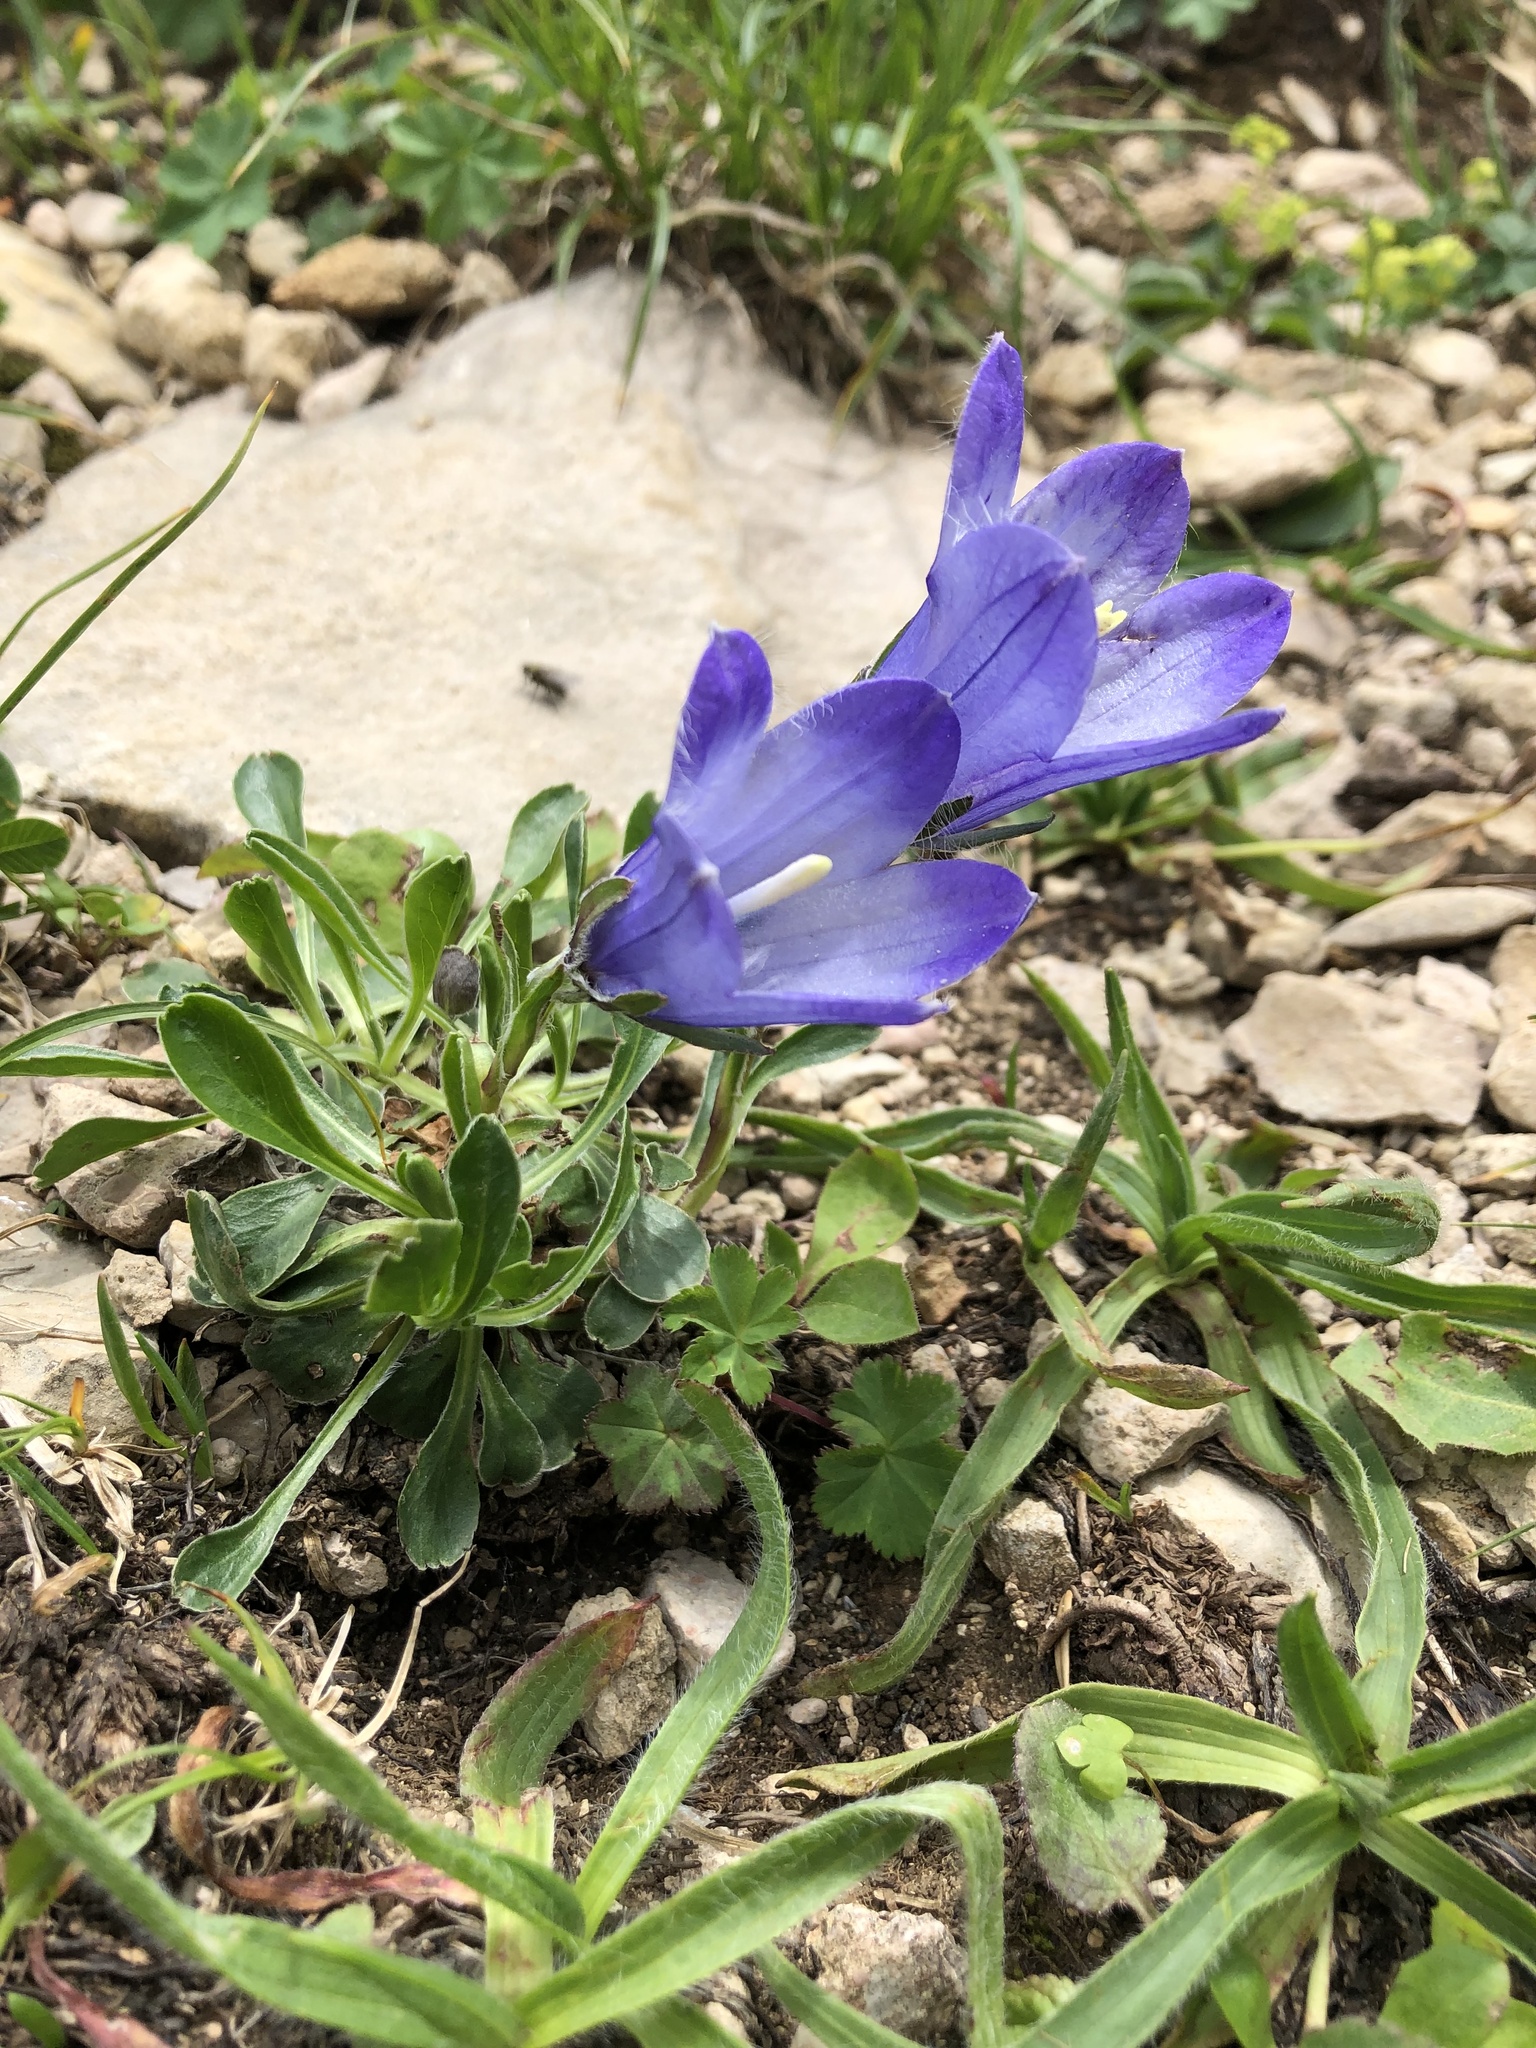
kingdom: Plantae
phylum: Tracheophyta
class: Magnoliopsida
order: Asterales
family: Campanulaceae
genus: Campanula
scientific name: Campanula tridentata
